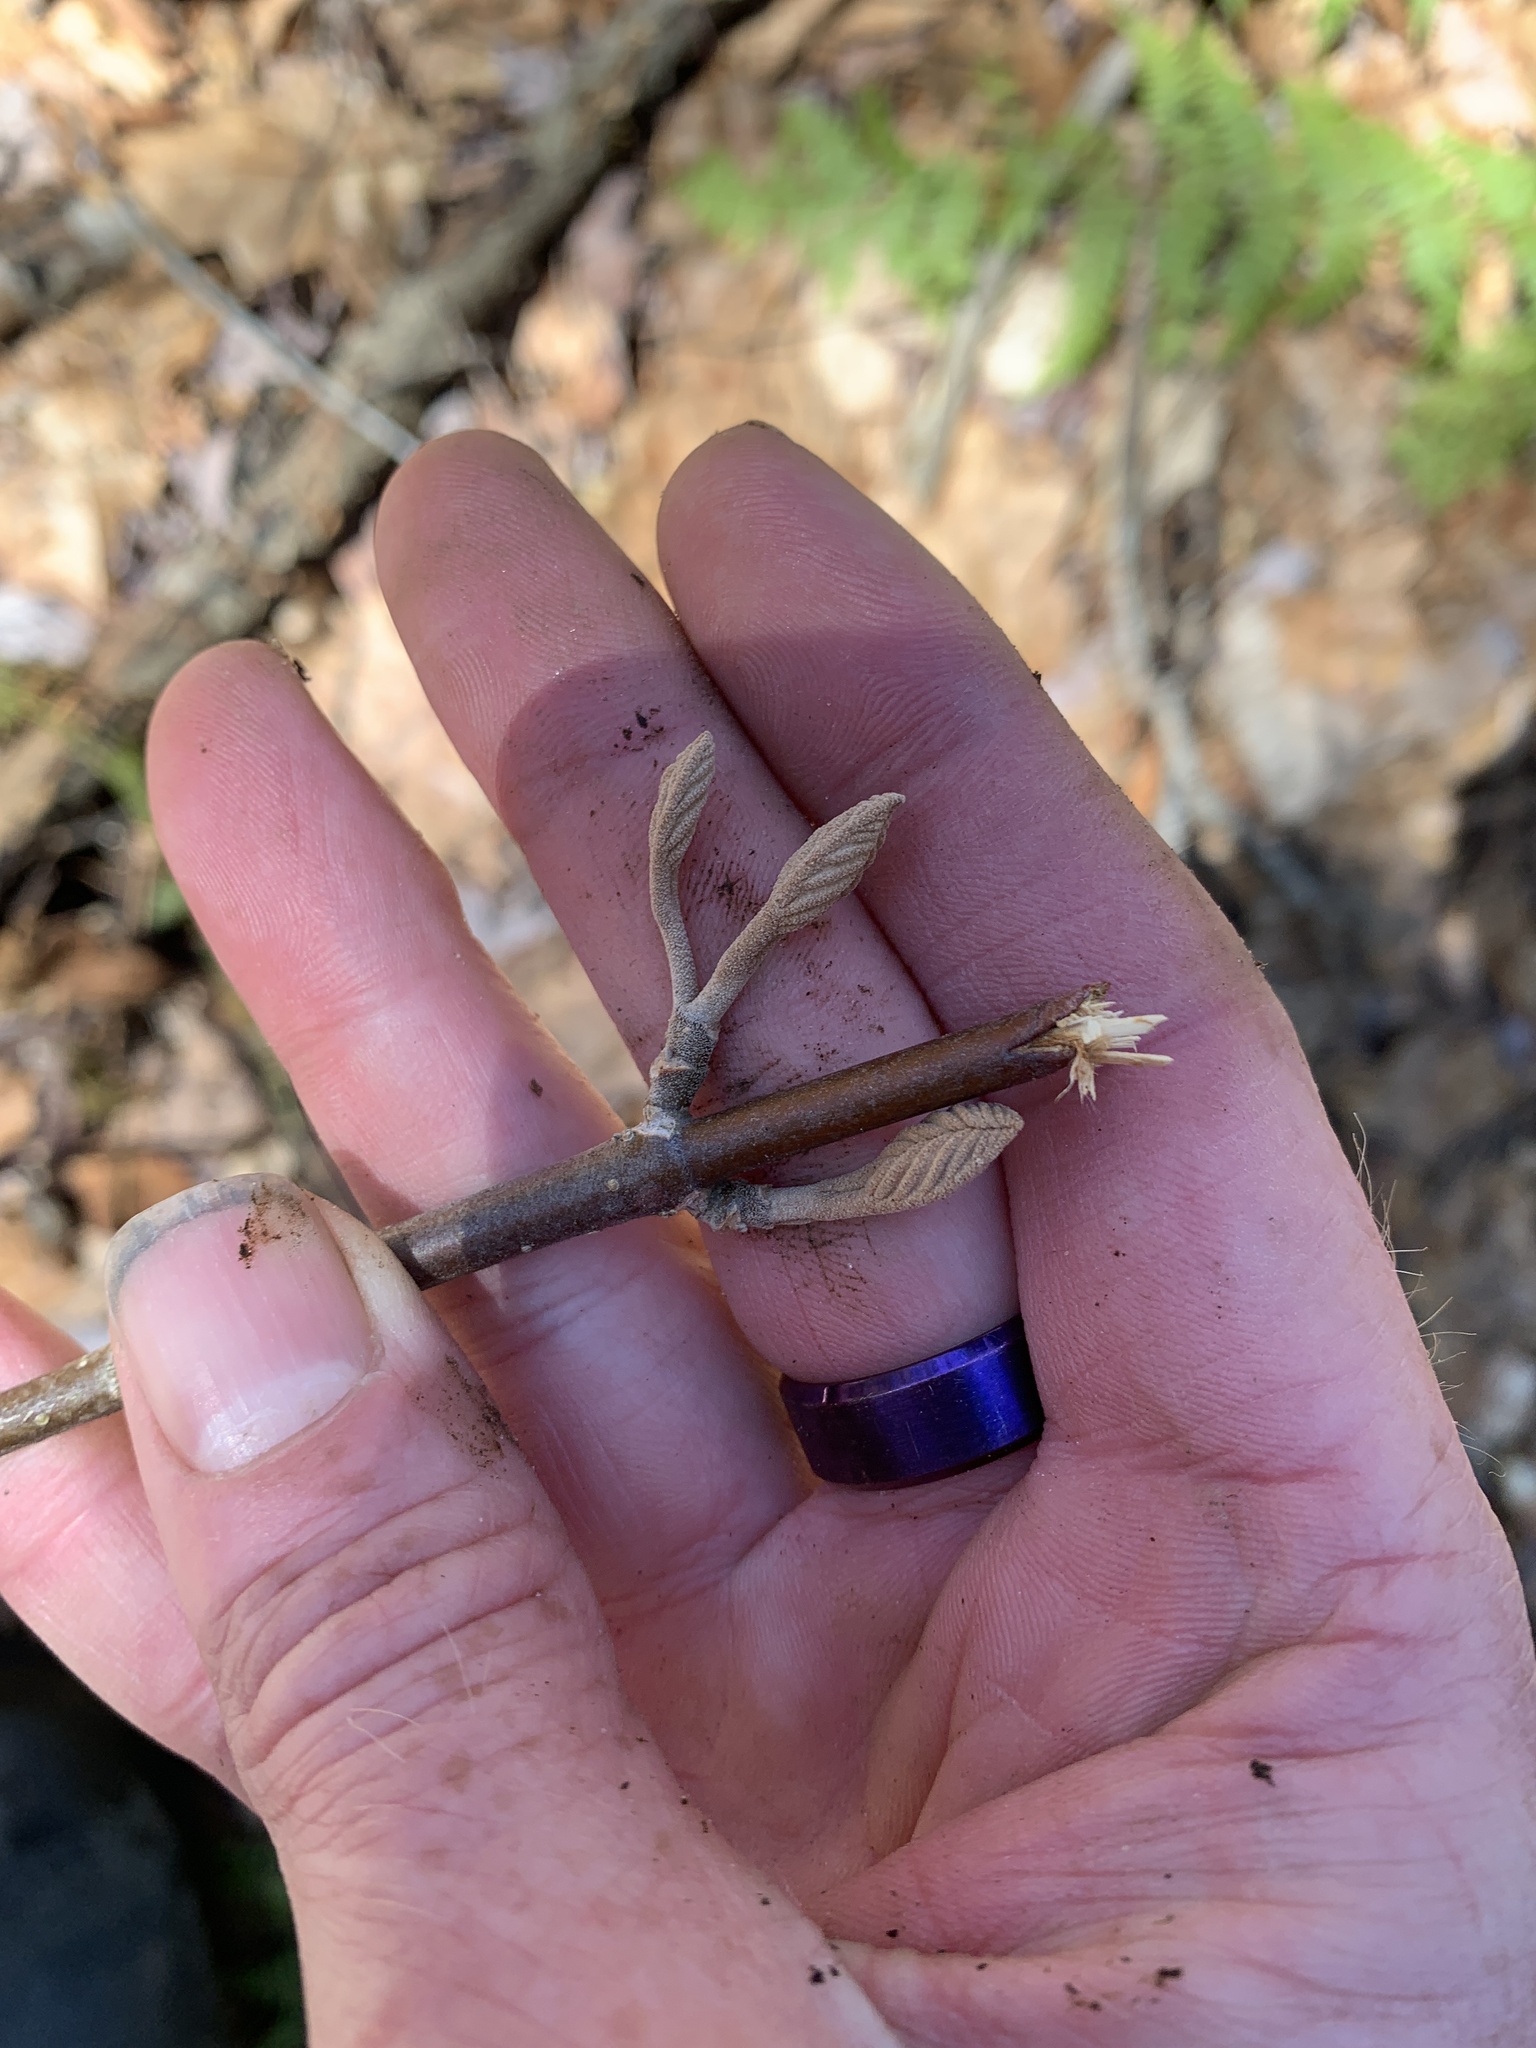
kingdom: Plantae
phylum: Tracheophyta
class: Magnoliopsida
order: Dipsacales
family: Viburnaceae
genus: Viburnum
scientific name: Viburnum lantanoides
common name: Hobblebush
